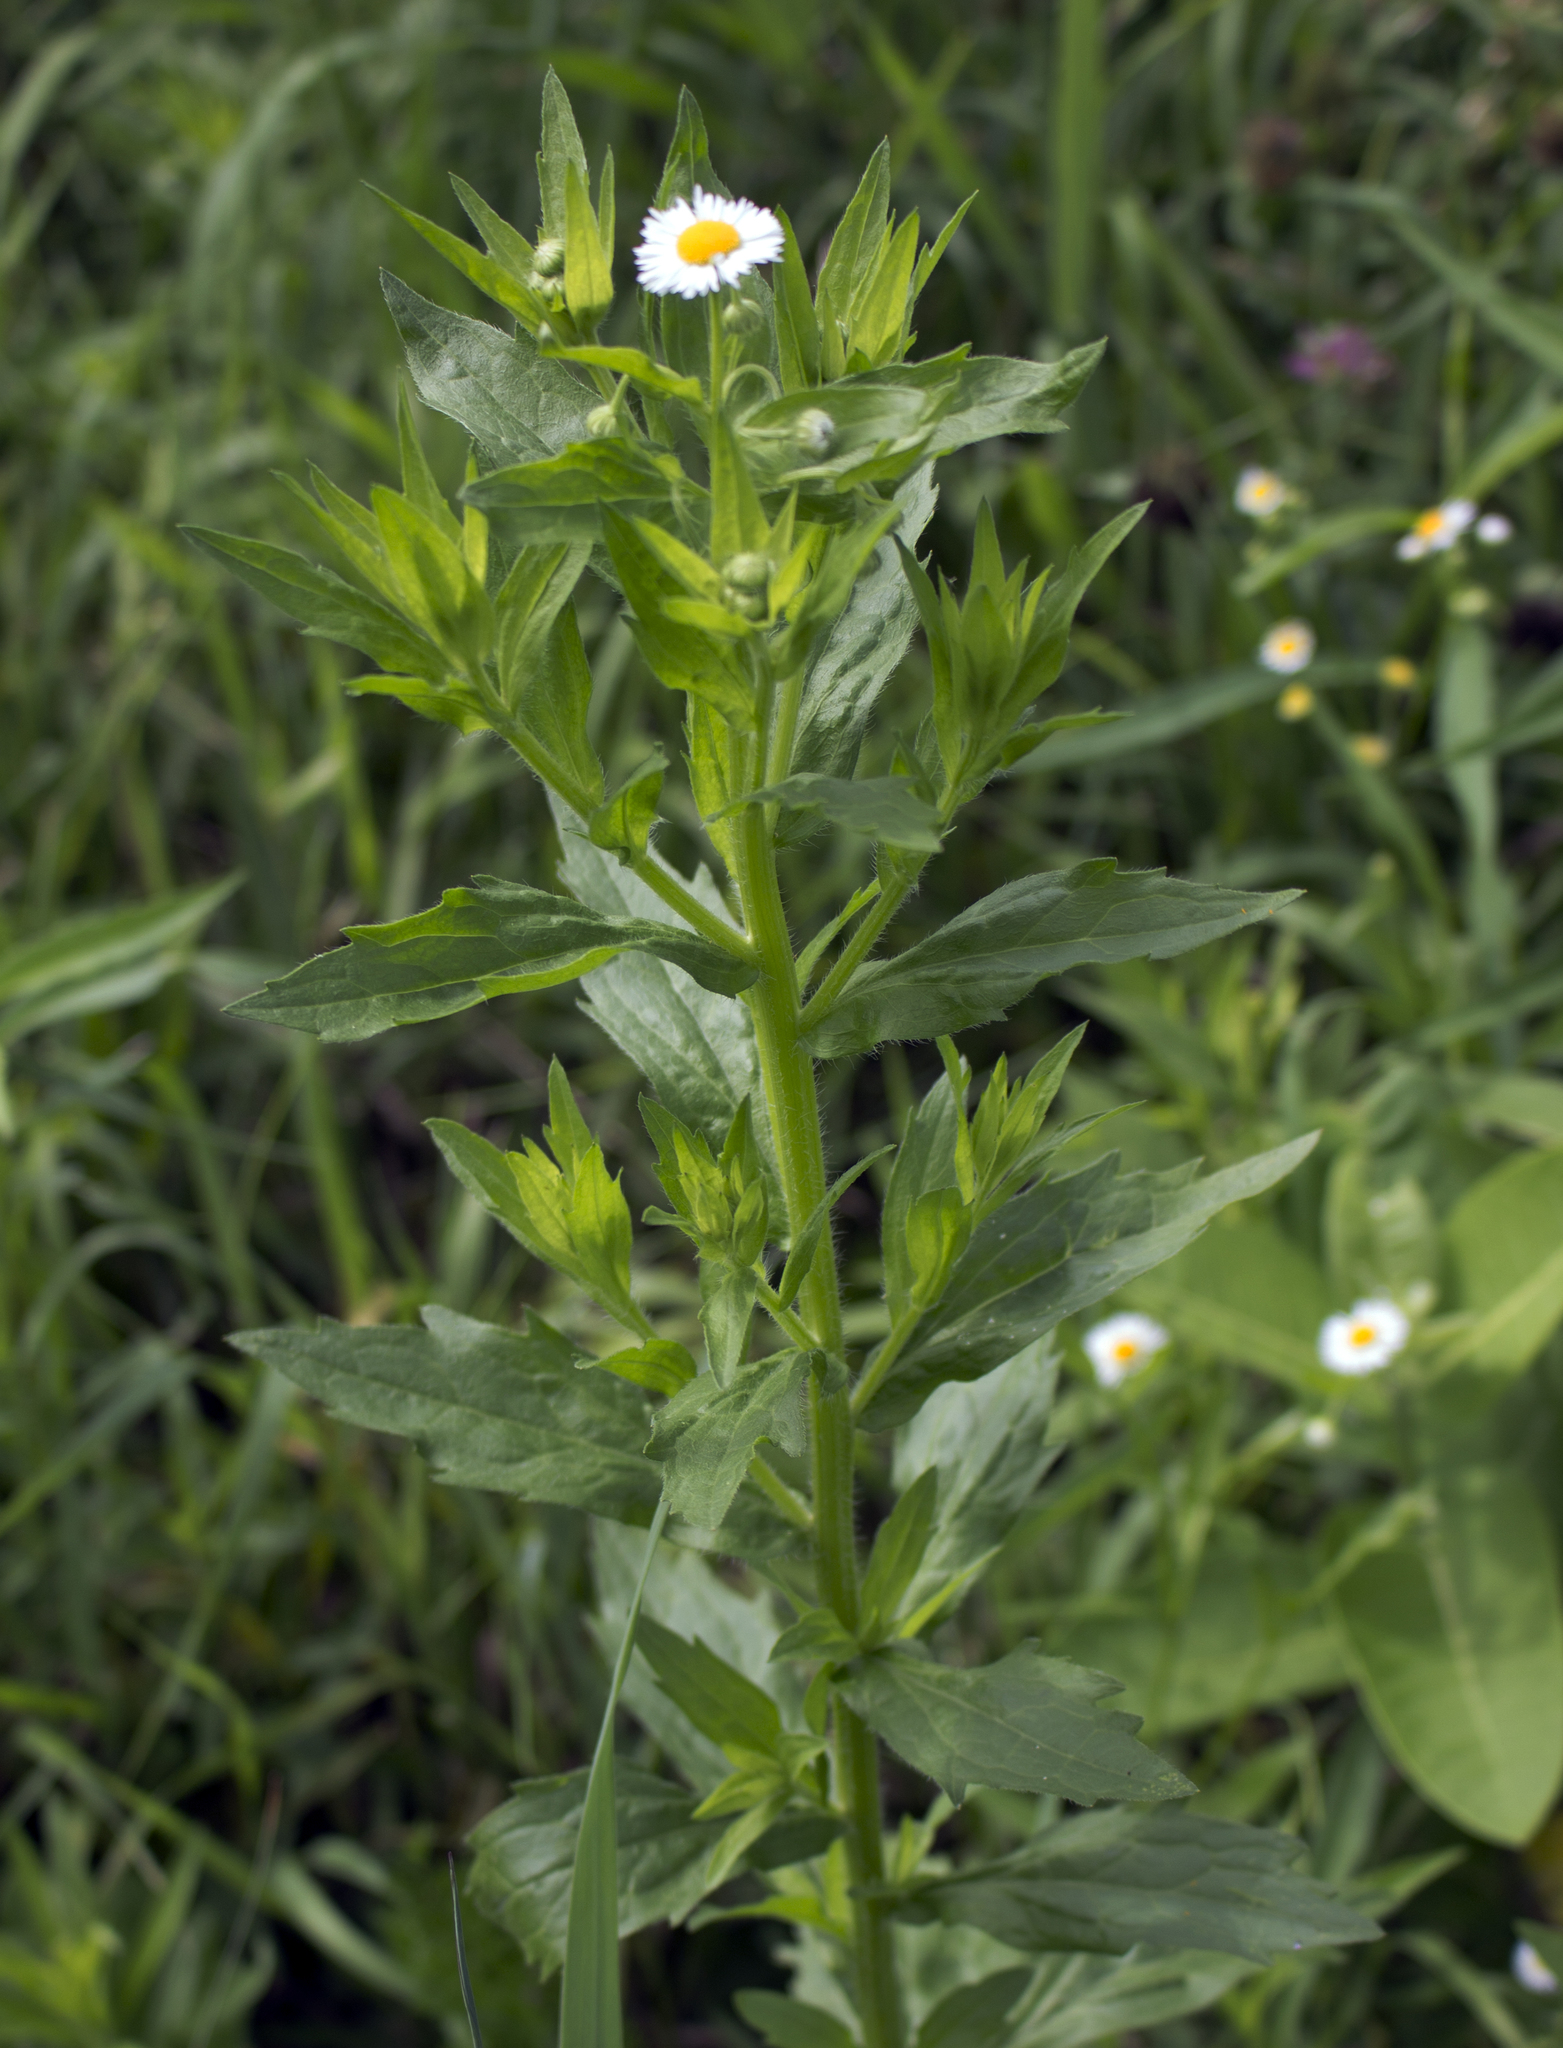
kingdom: Plantae
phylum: Tracheophyta
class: Magnoliopsida
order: Asterales
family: Asteraceae
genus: Erigeron
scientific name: Erigeron annuus
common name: Tall fleabane
